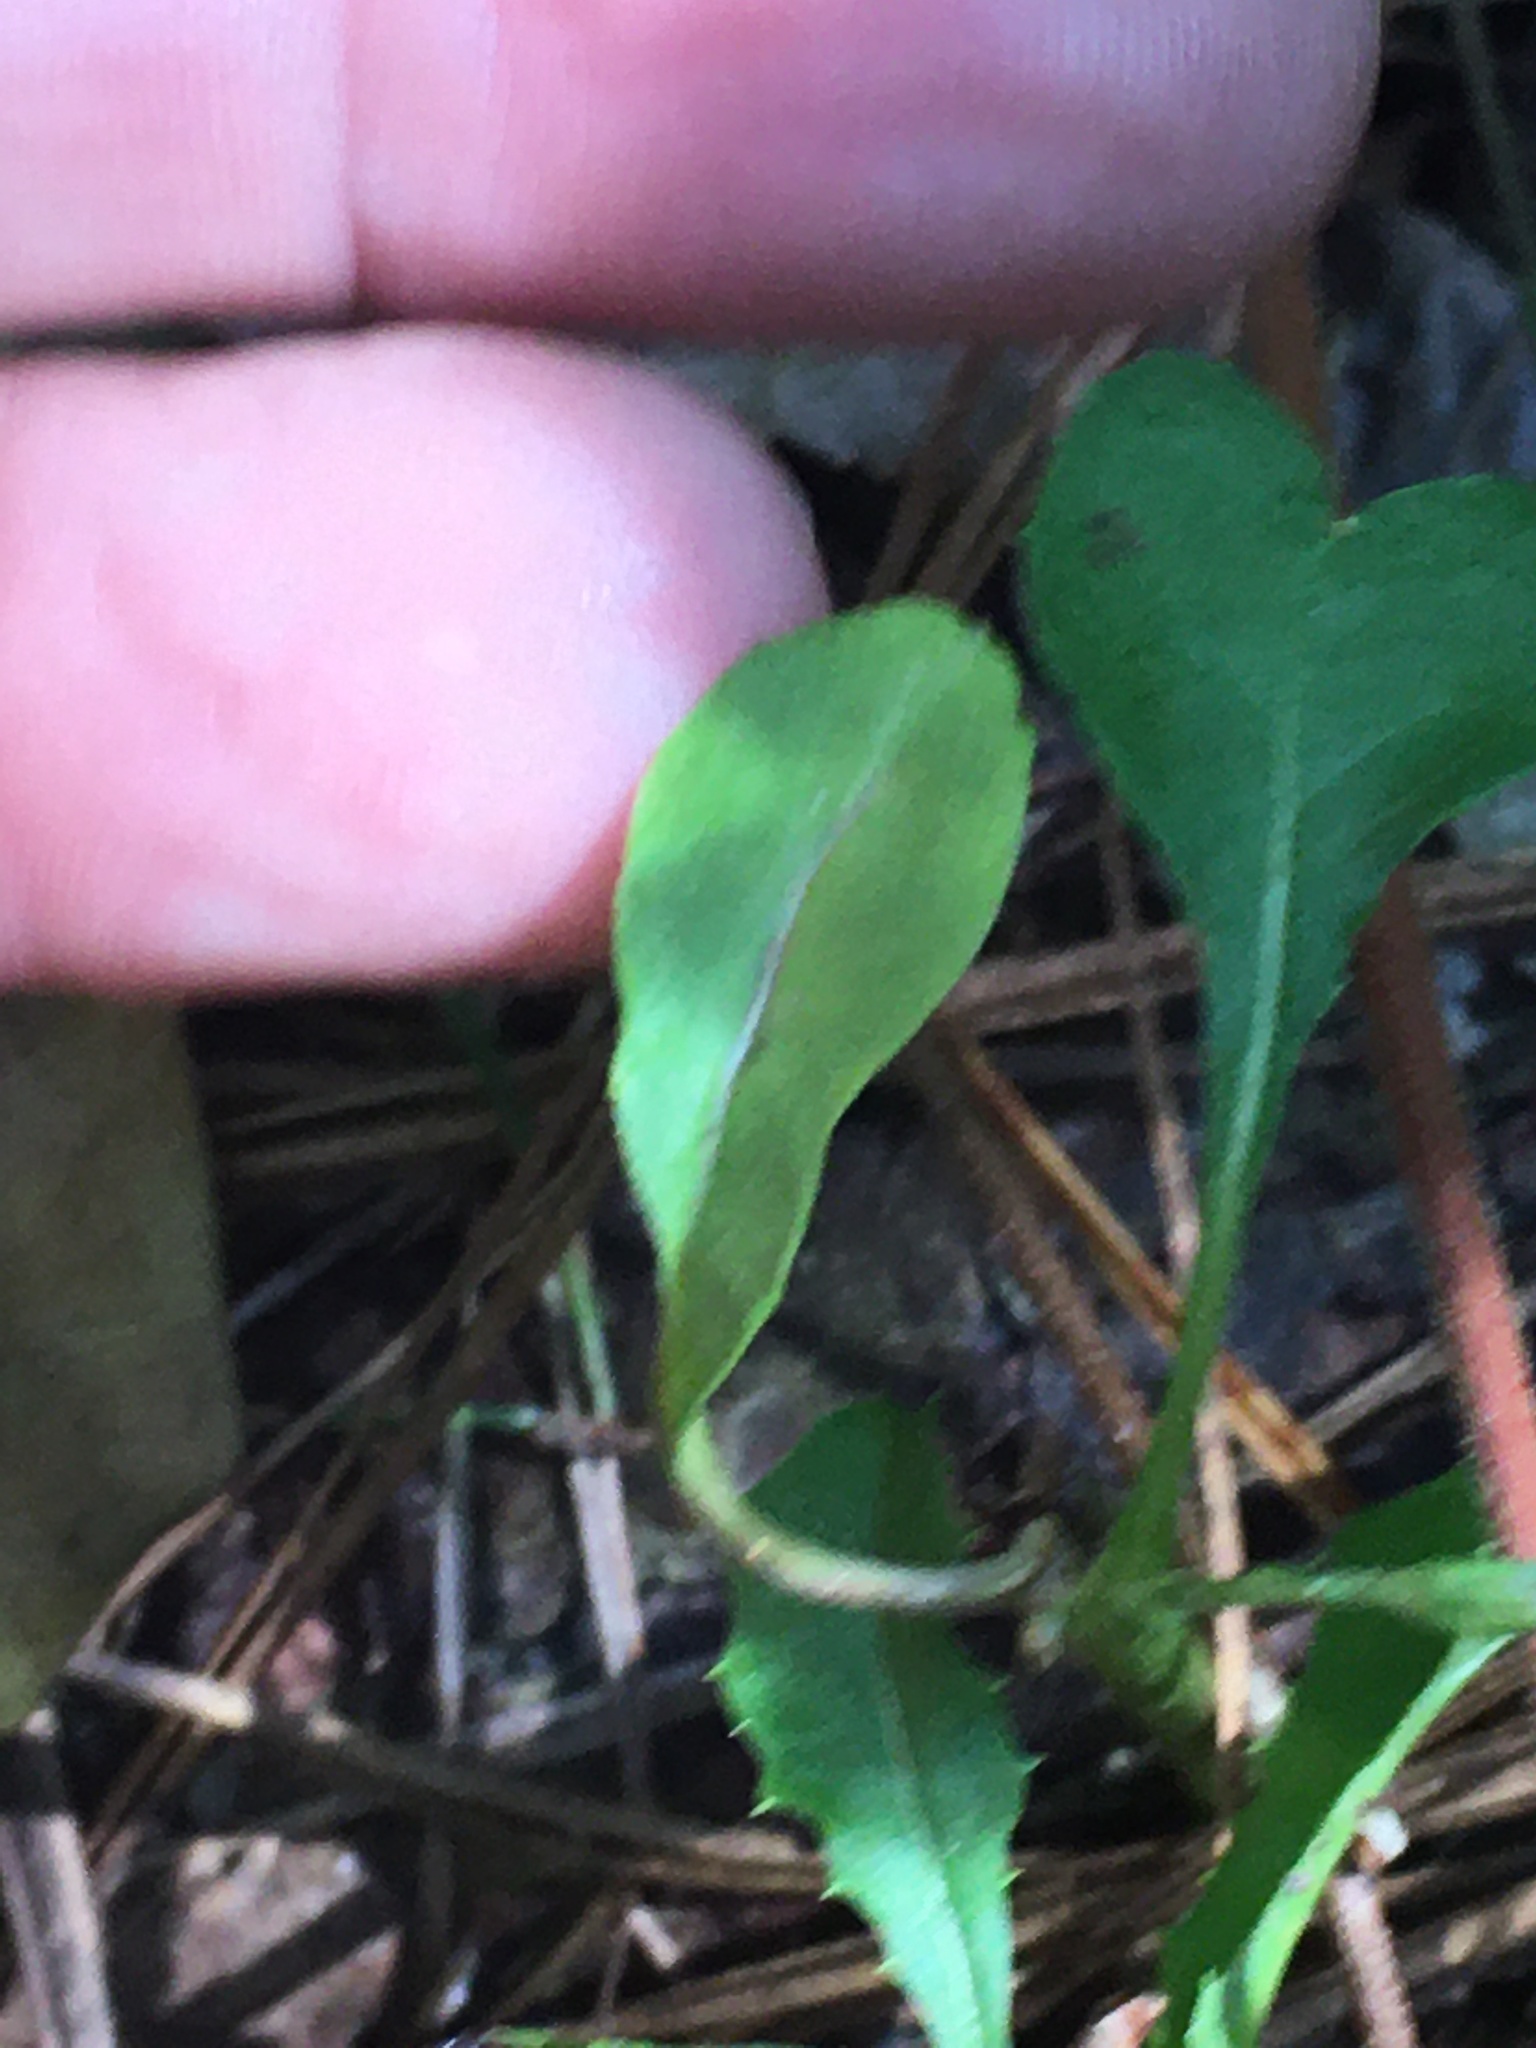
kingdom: Plantae
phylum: Tracheophyta
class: Magnoliopsida
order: Asterales
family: Asteraceae
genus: Nabalus
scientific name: Nabalus serpentarius
